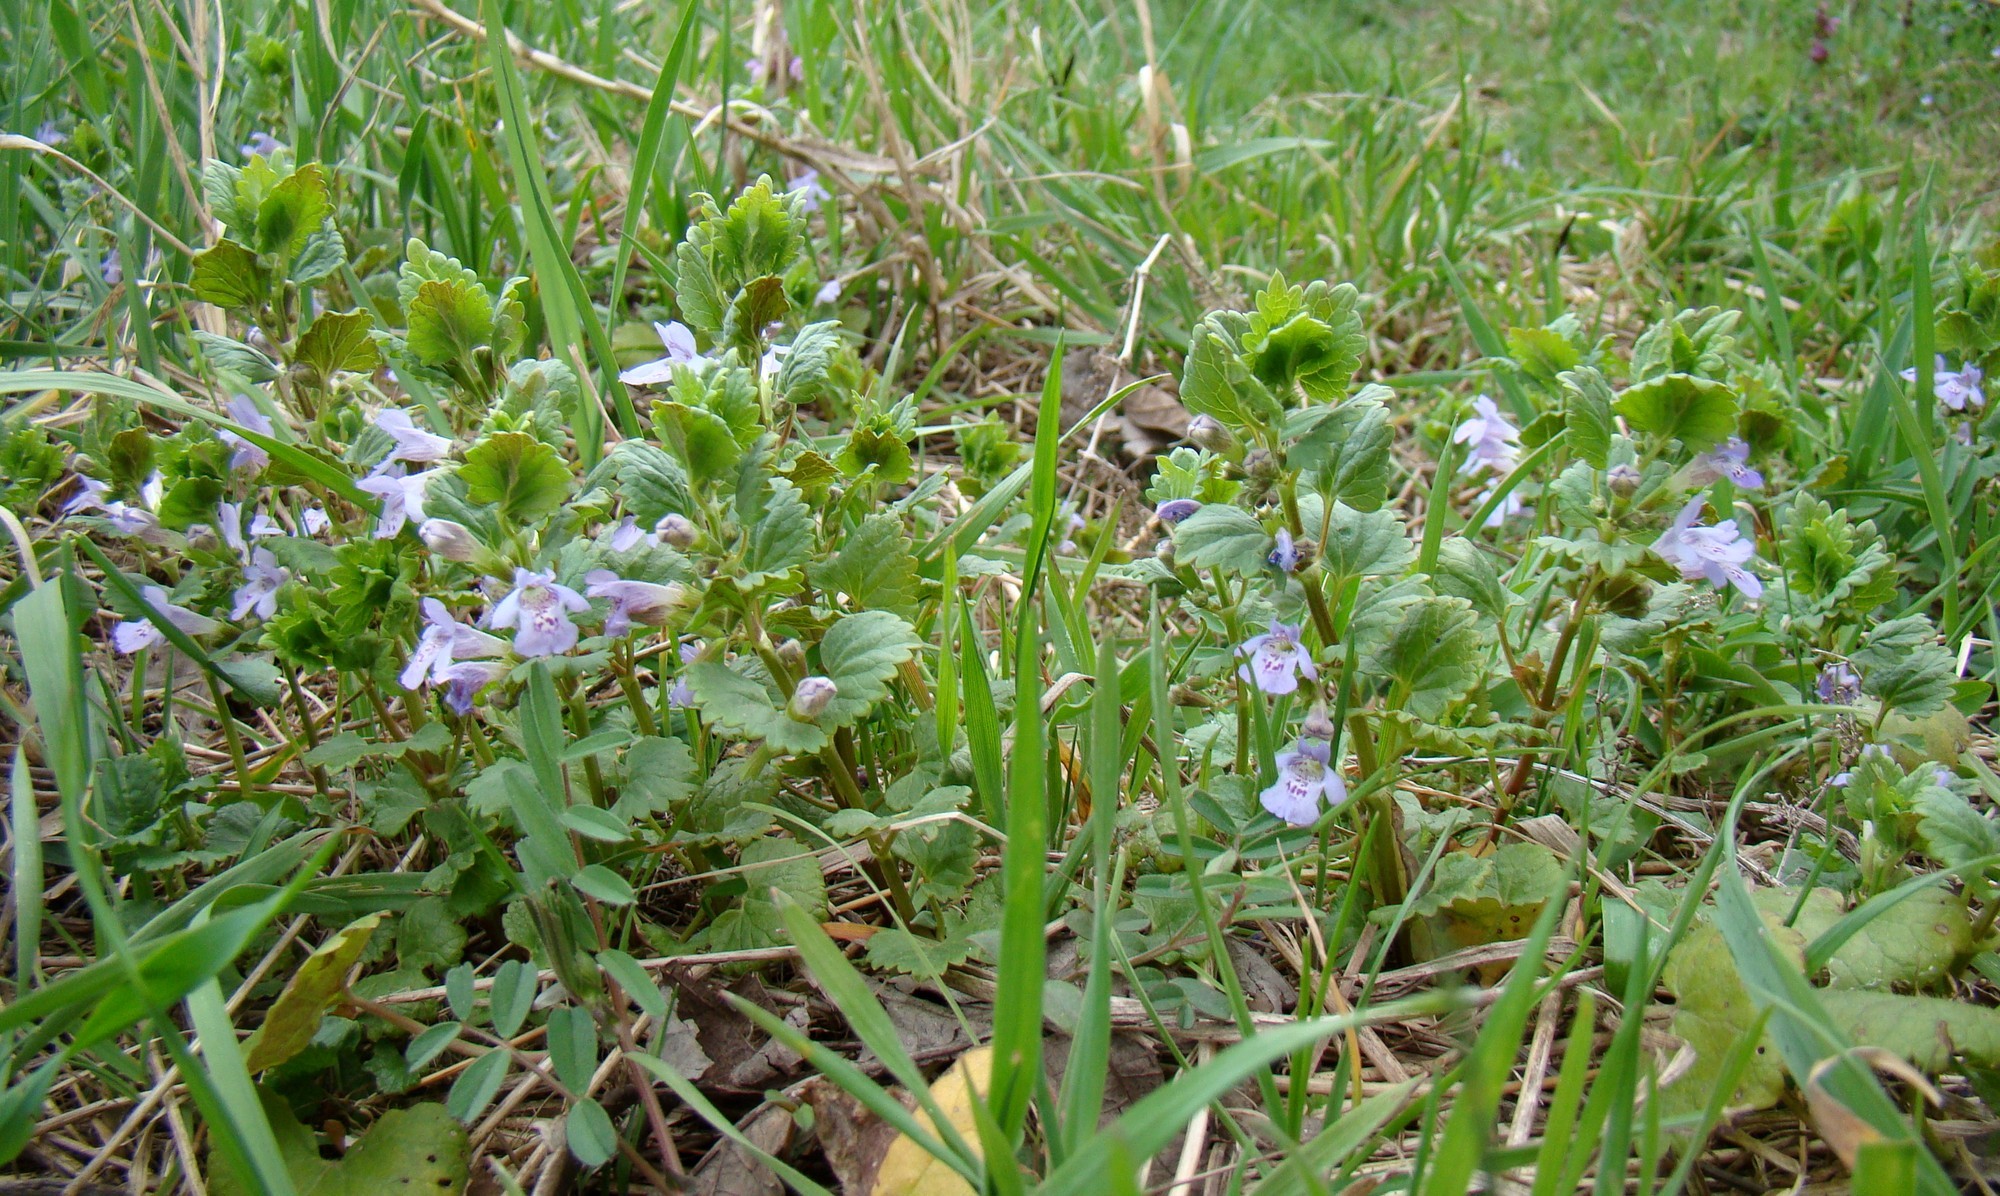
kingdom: Plantae
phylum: Tracheophyta
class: Magnoliopsida
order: Lamiales
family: Lamiaceae
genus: Glechoma
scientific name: Glechoma hederacea
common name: Ground ivy
